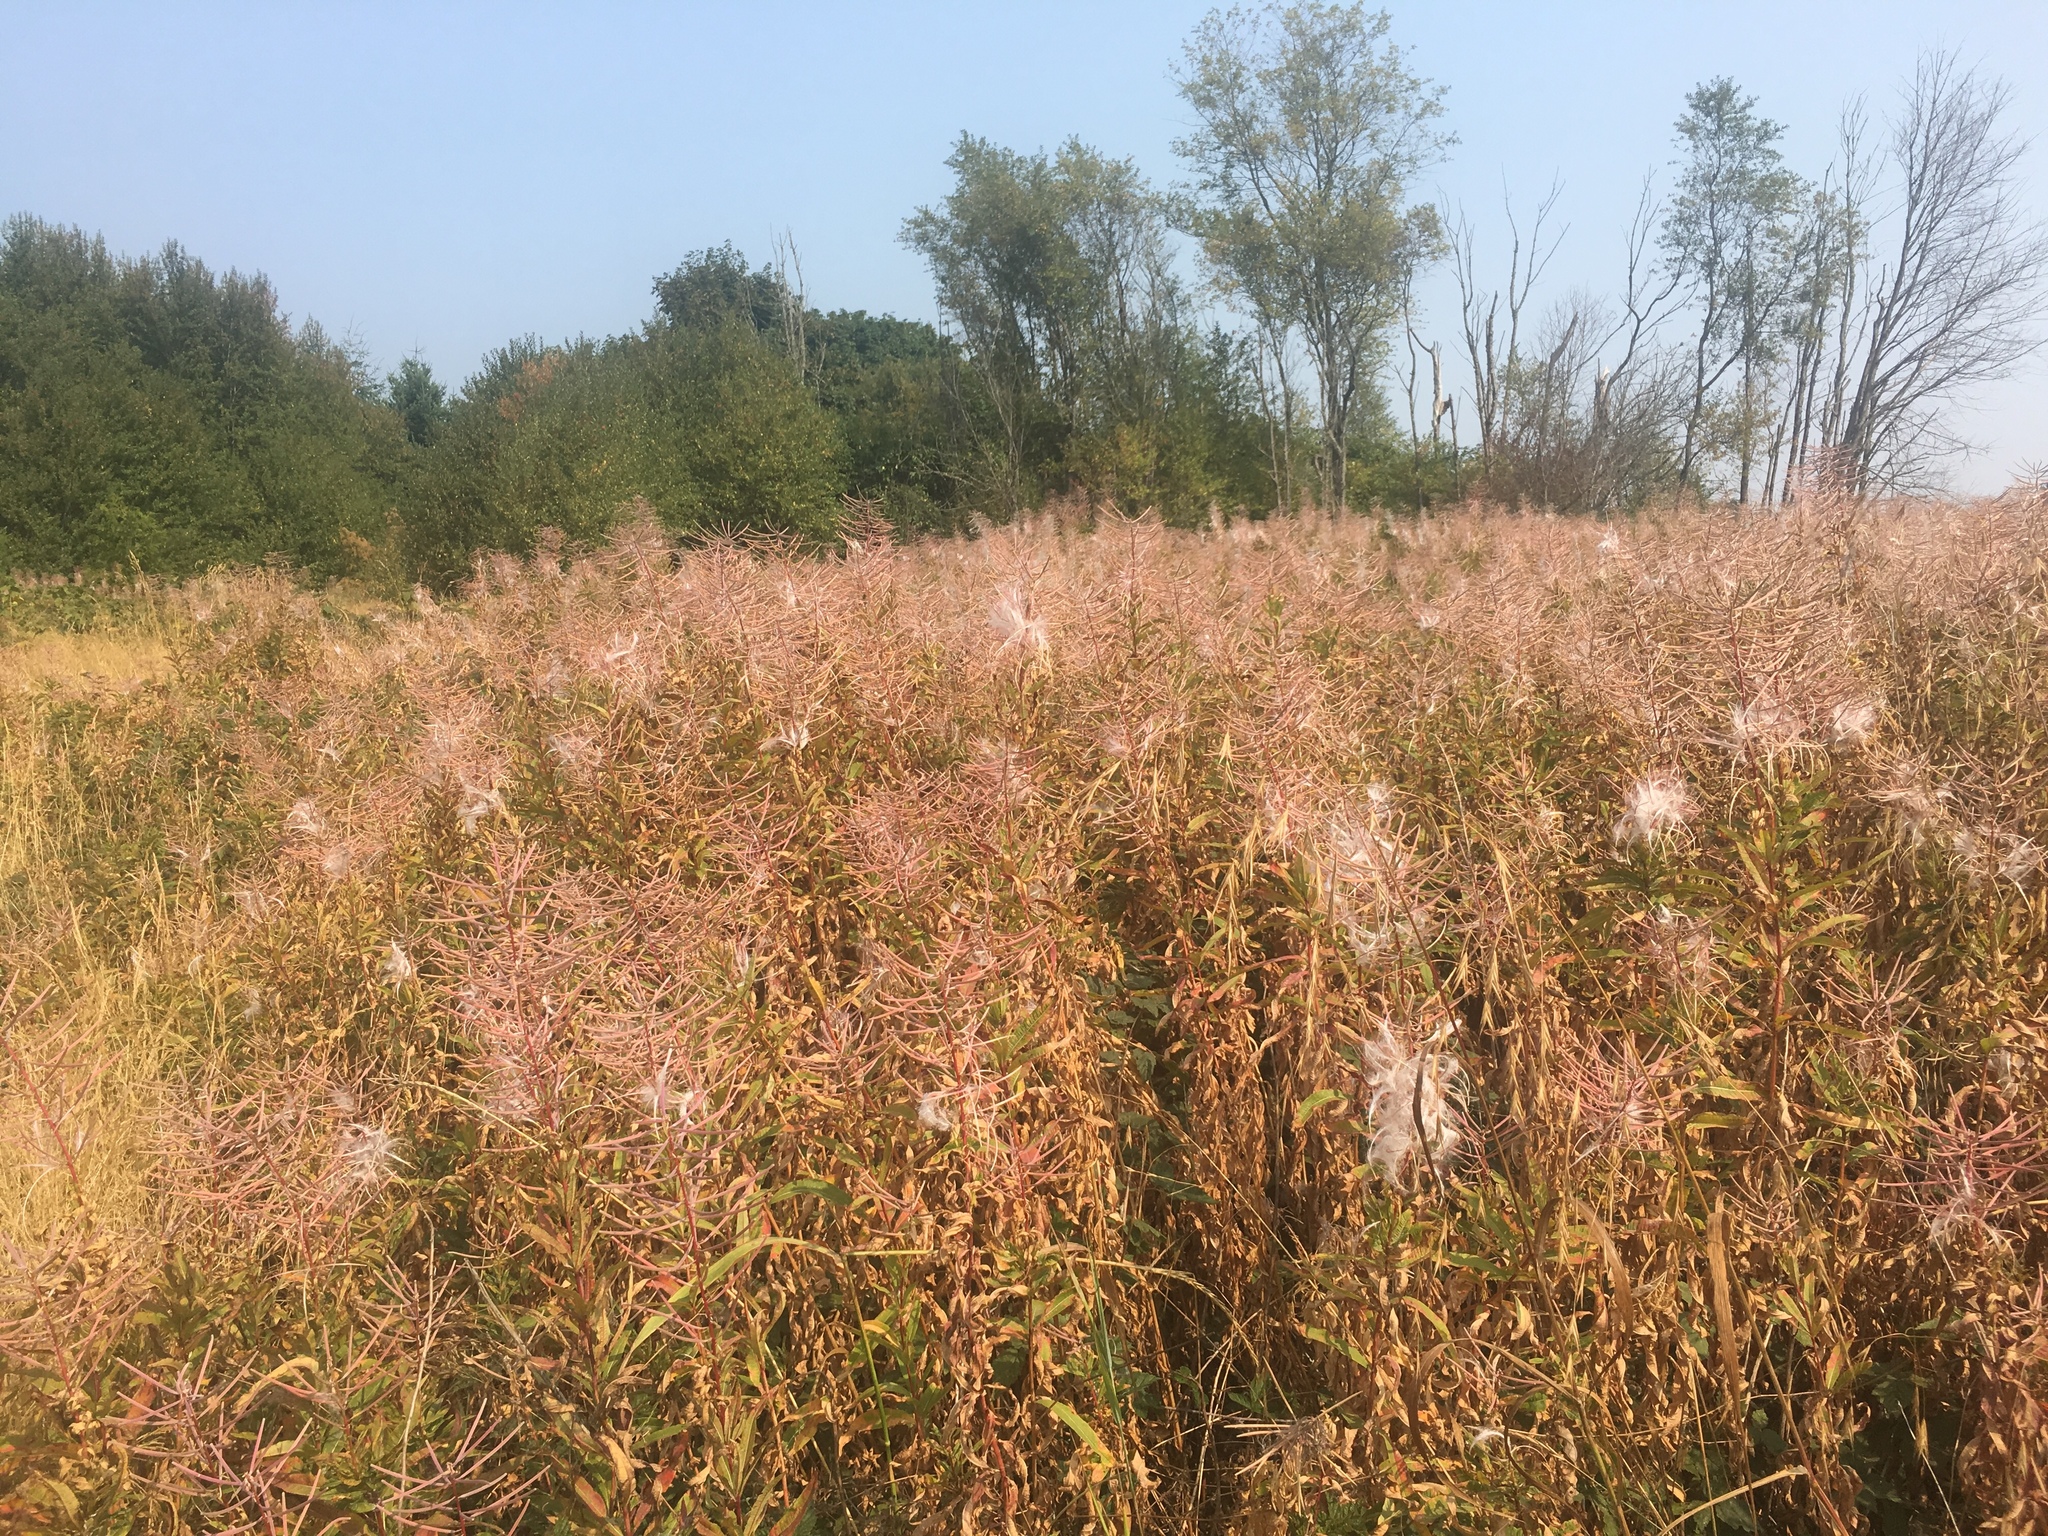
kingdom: Plantae
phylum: Tracheophyta
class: Magnoliopsida
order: Myrtales
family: Onagraceae
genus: Chamaenerion
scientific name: Chamaenerion angustifolium
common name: Fireweed
